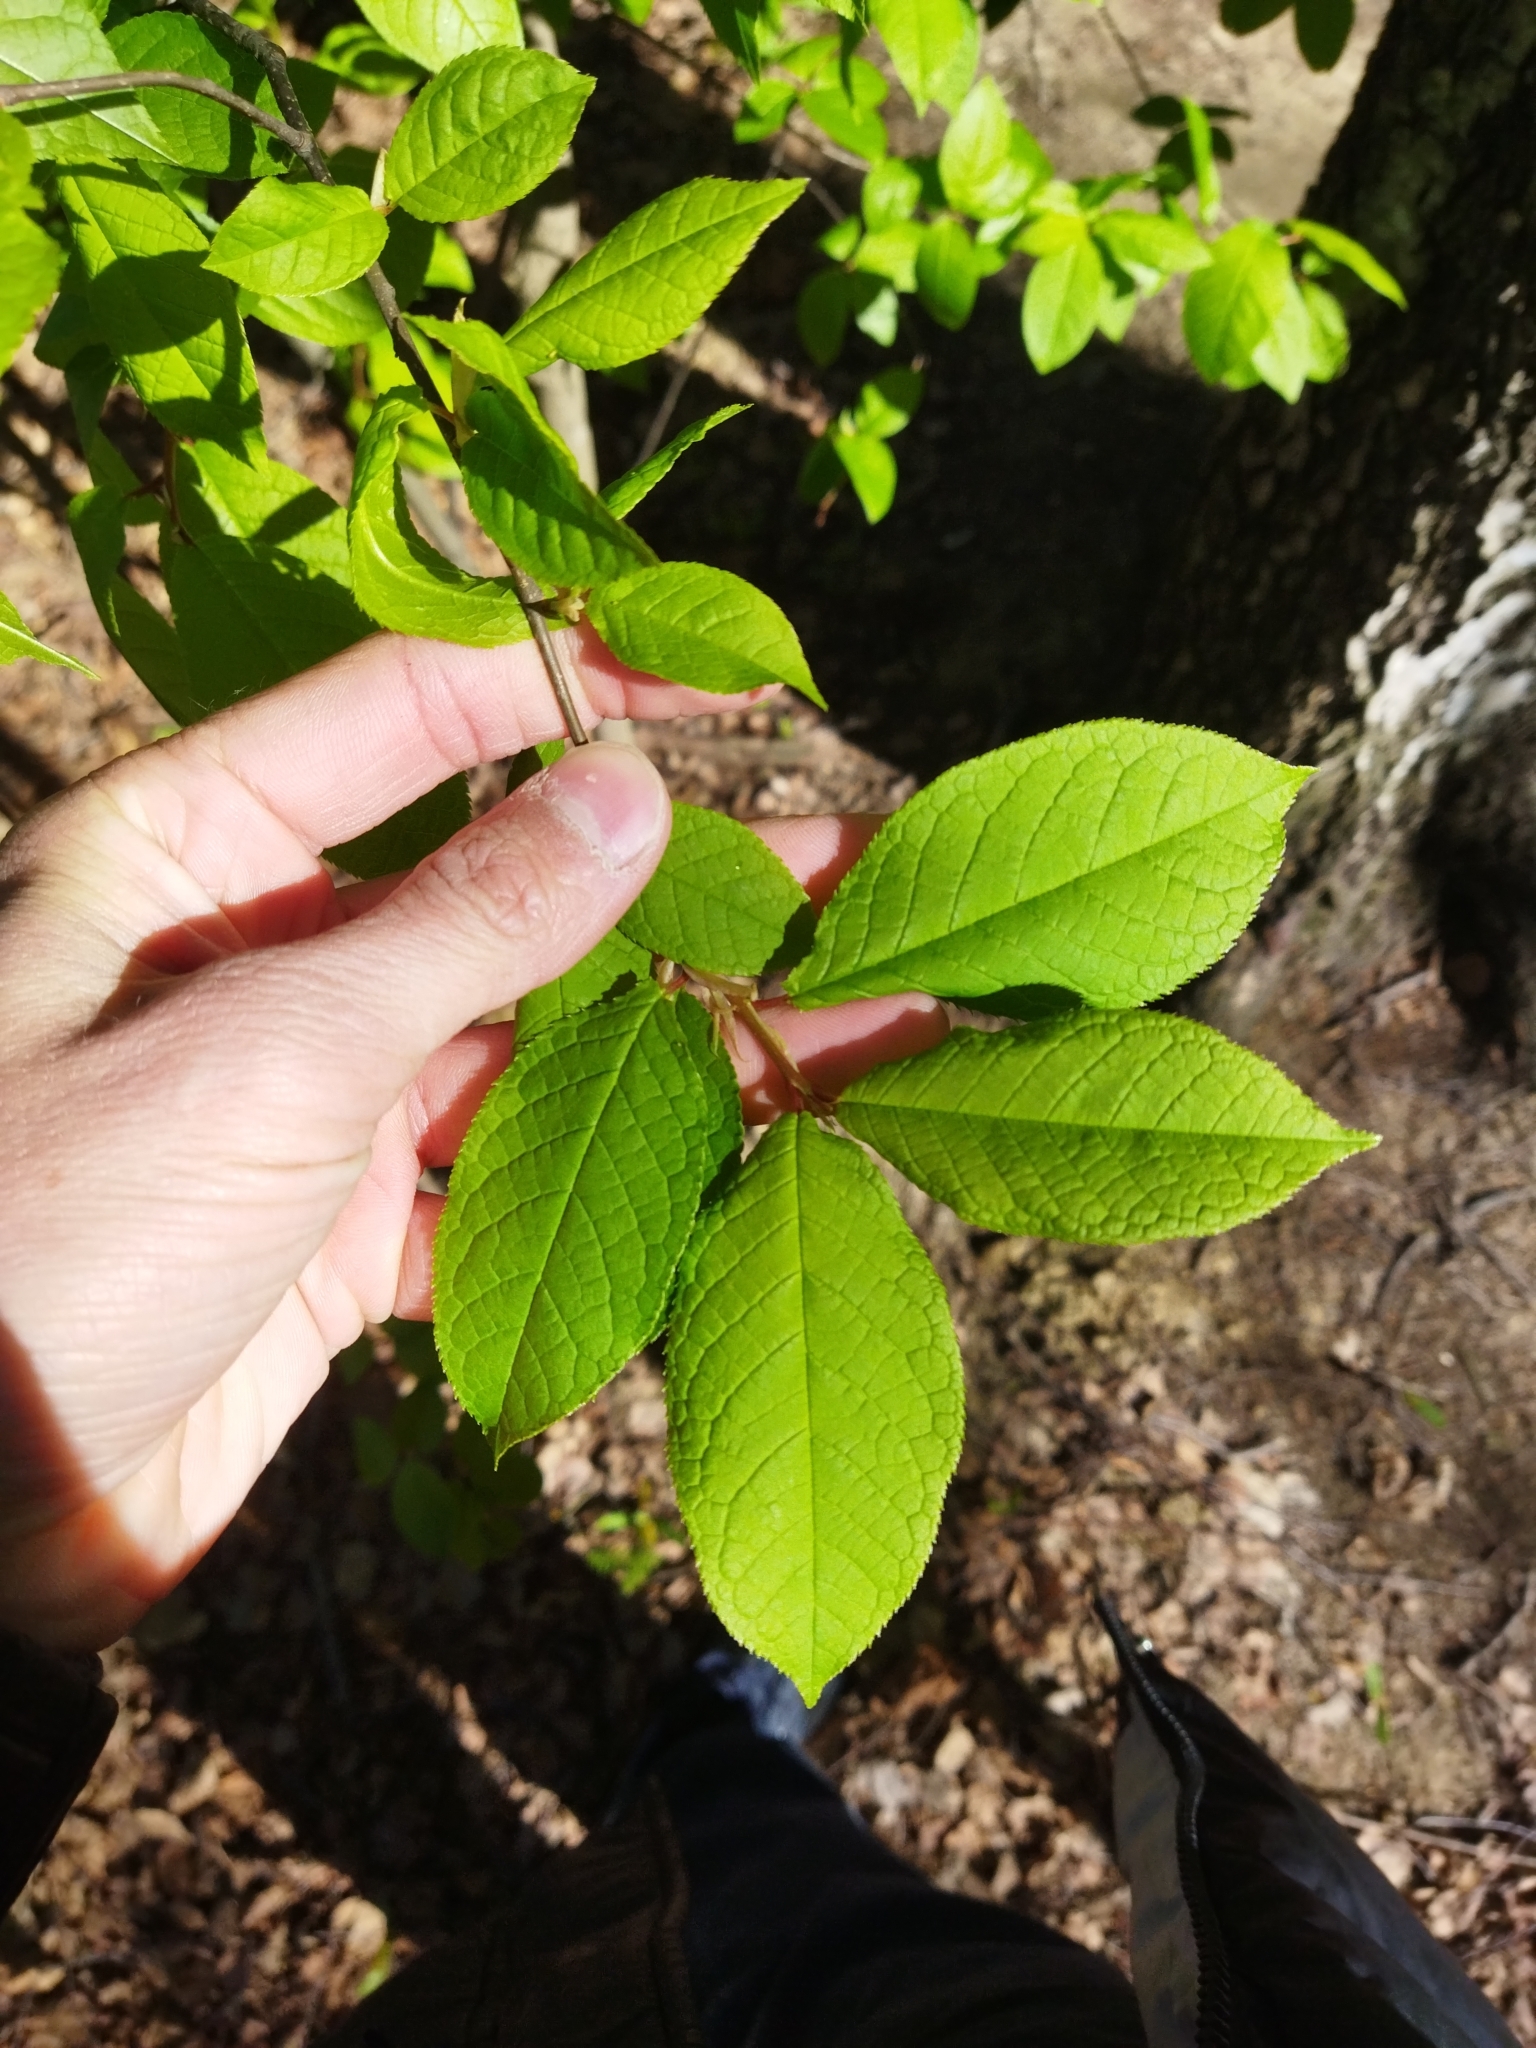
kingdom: Plantae
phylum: Tracheophyta
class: Magnoliopsida
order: Rosales
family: Rosaceae
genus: Prunus
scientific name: Prunus padus
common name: Bird cherry
